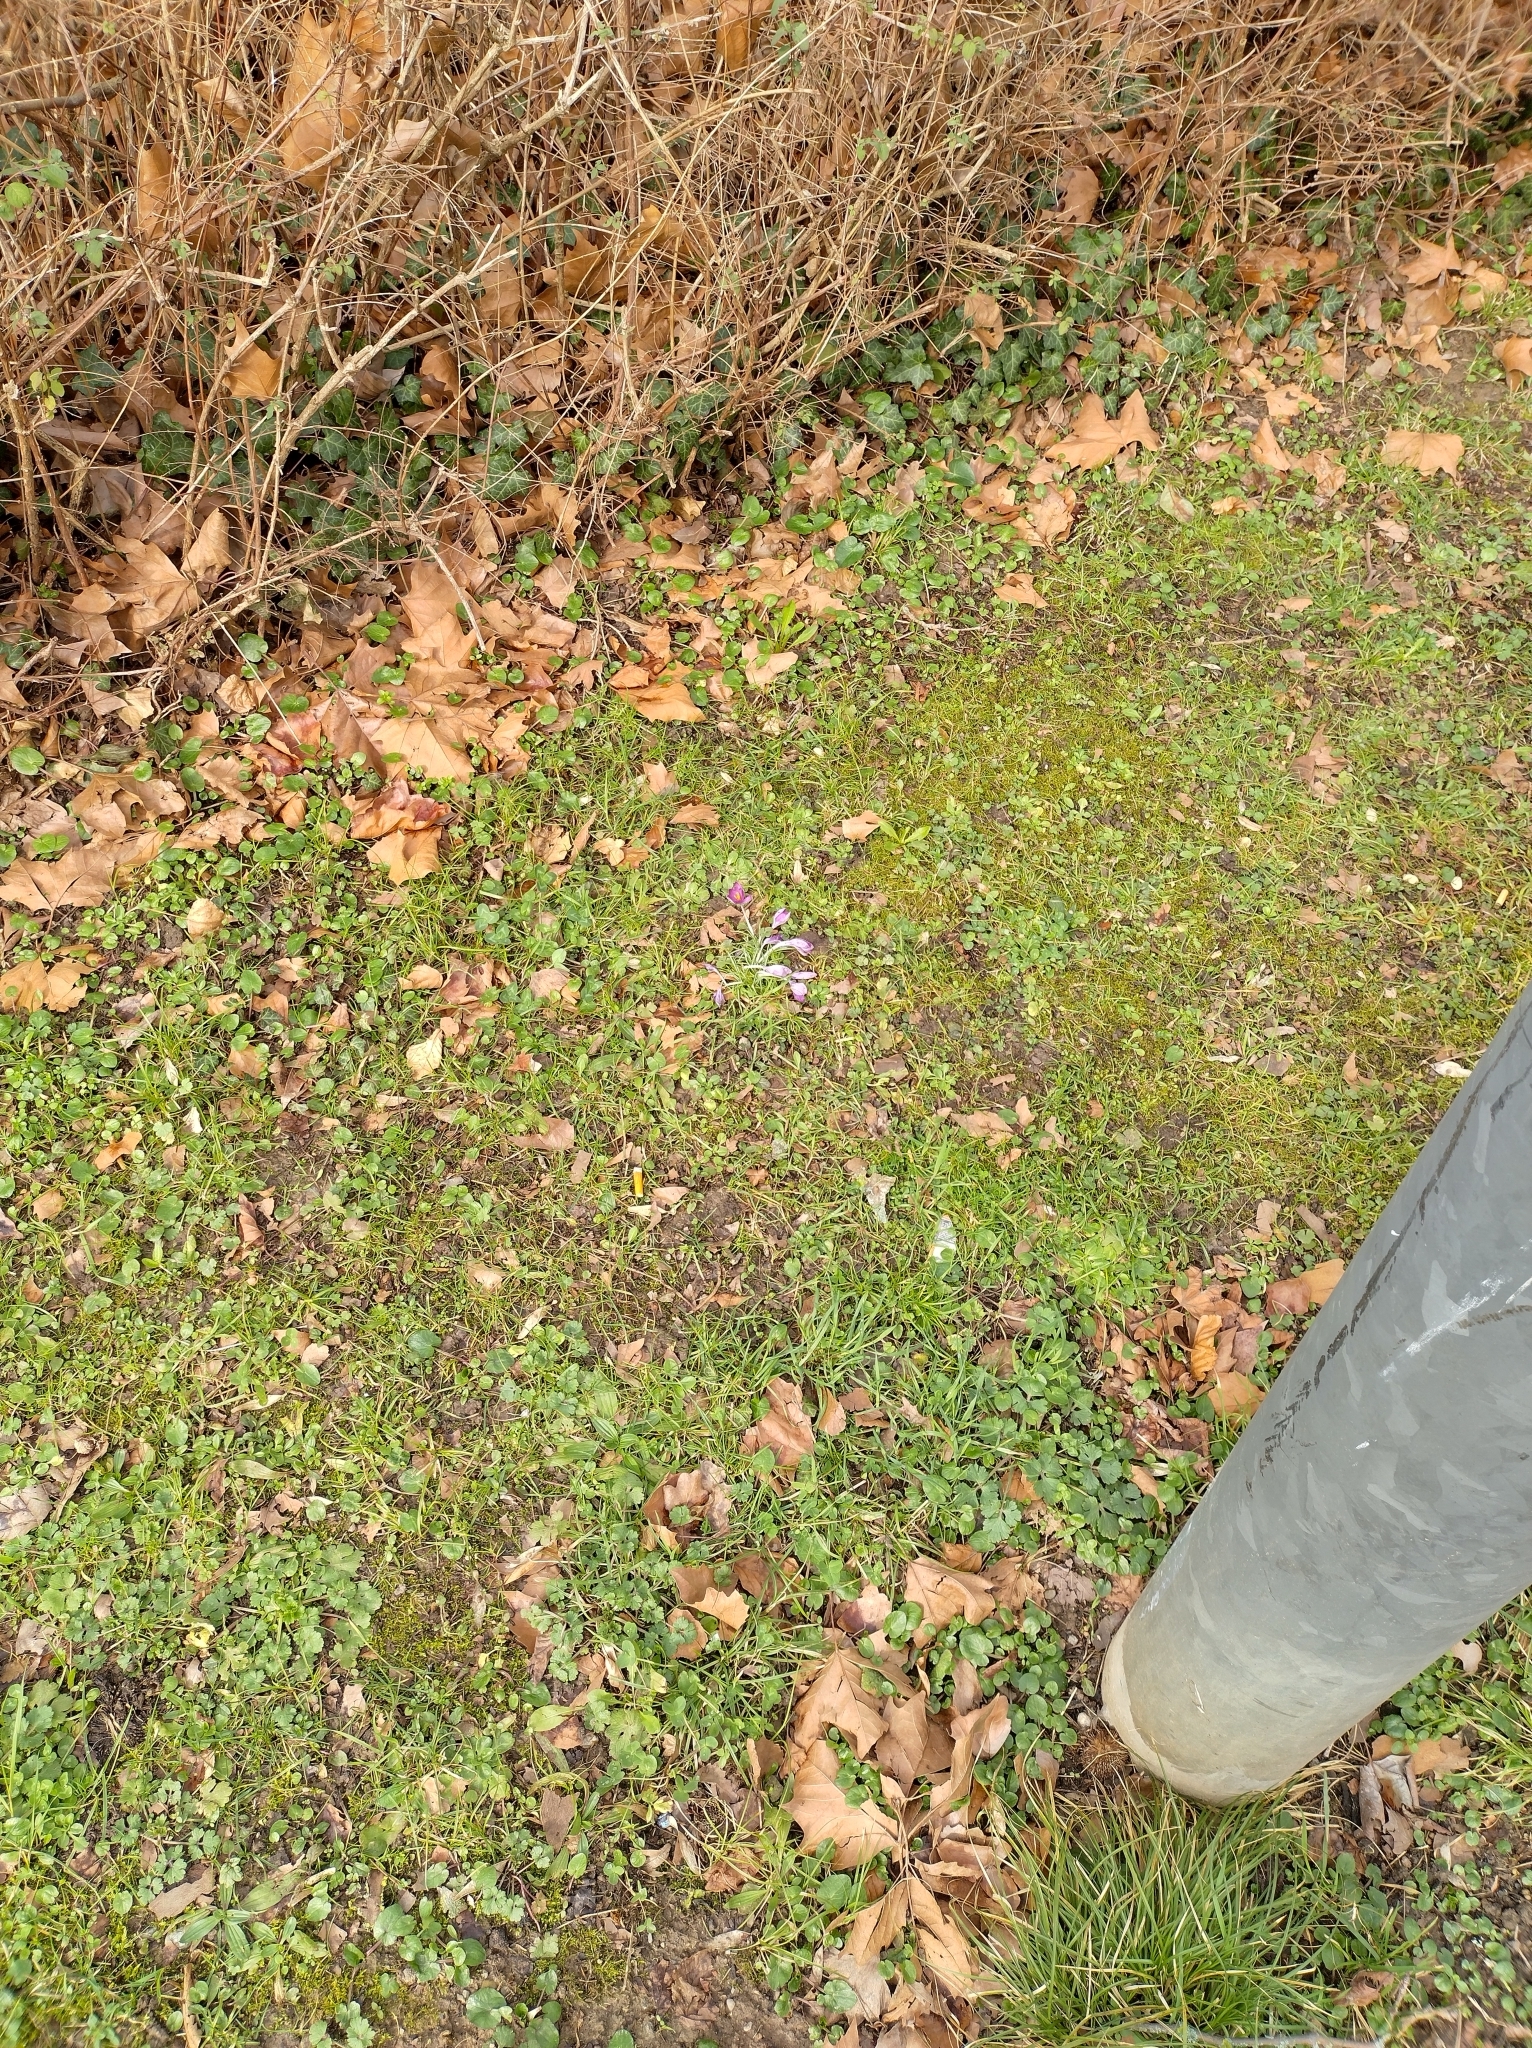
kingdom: Plantae
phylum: Tracheophyta
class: Liliopsida
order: Asparagales
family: Iridaceae
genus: Crocus
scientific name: Crocus tommasinianus
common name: Early crocus
